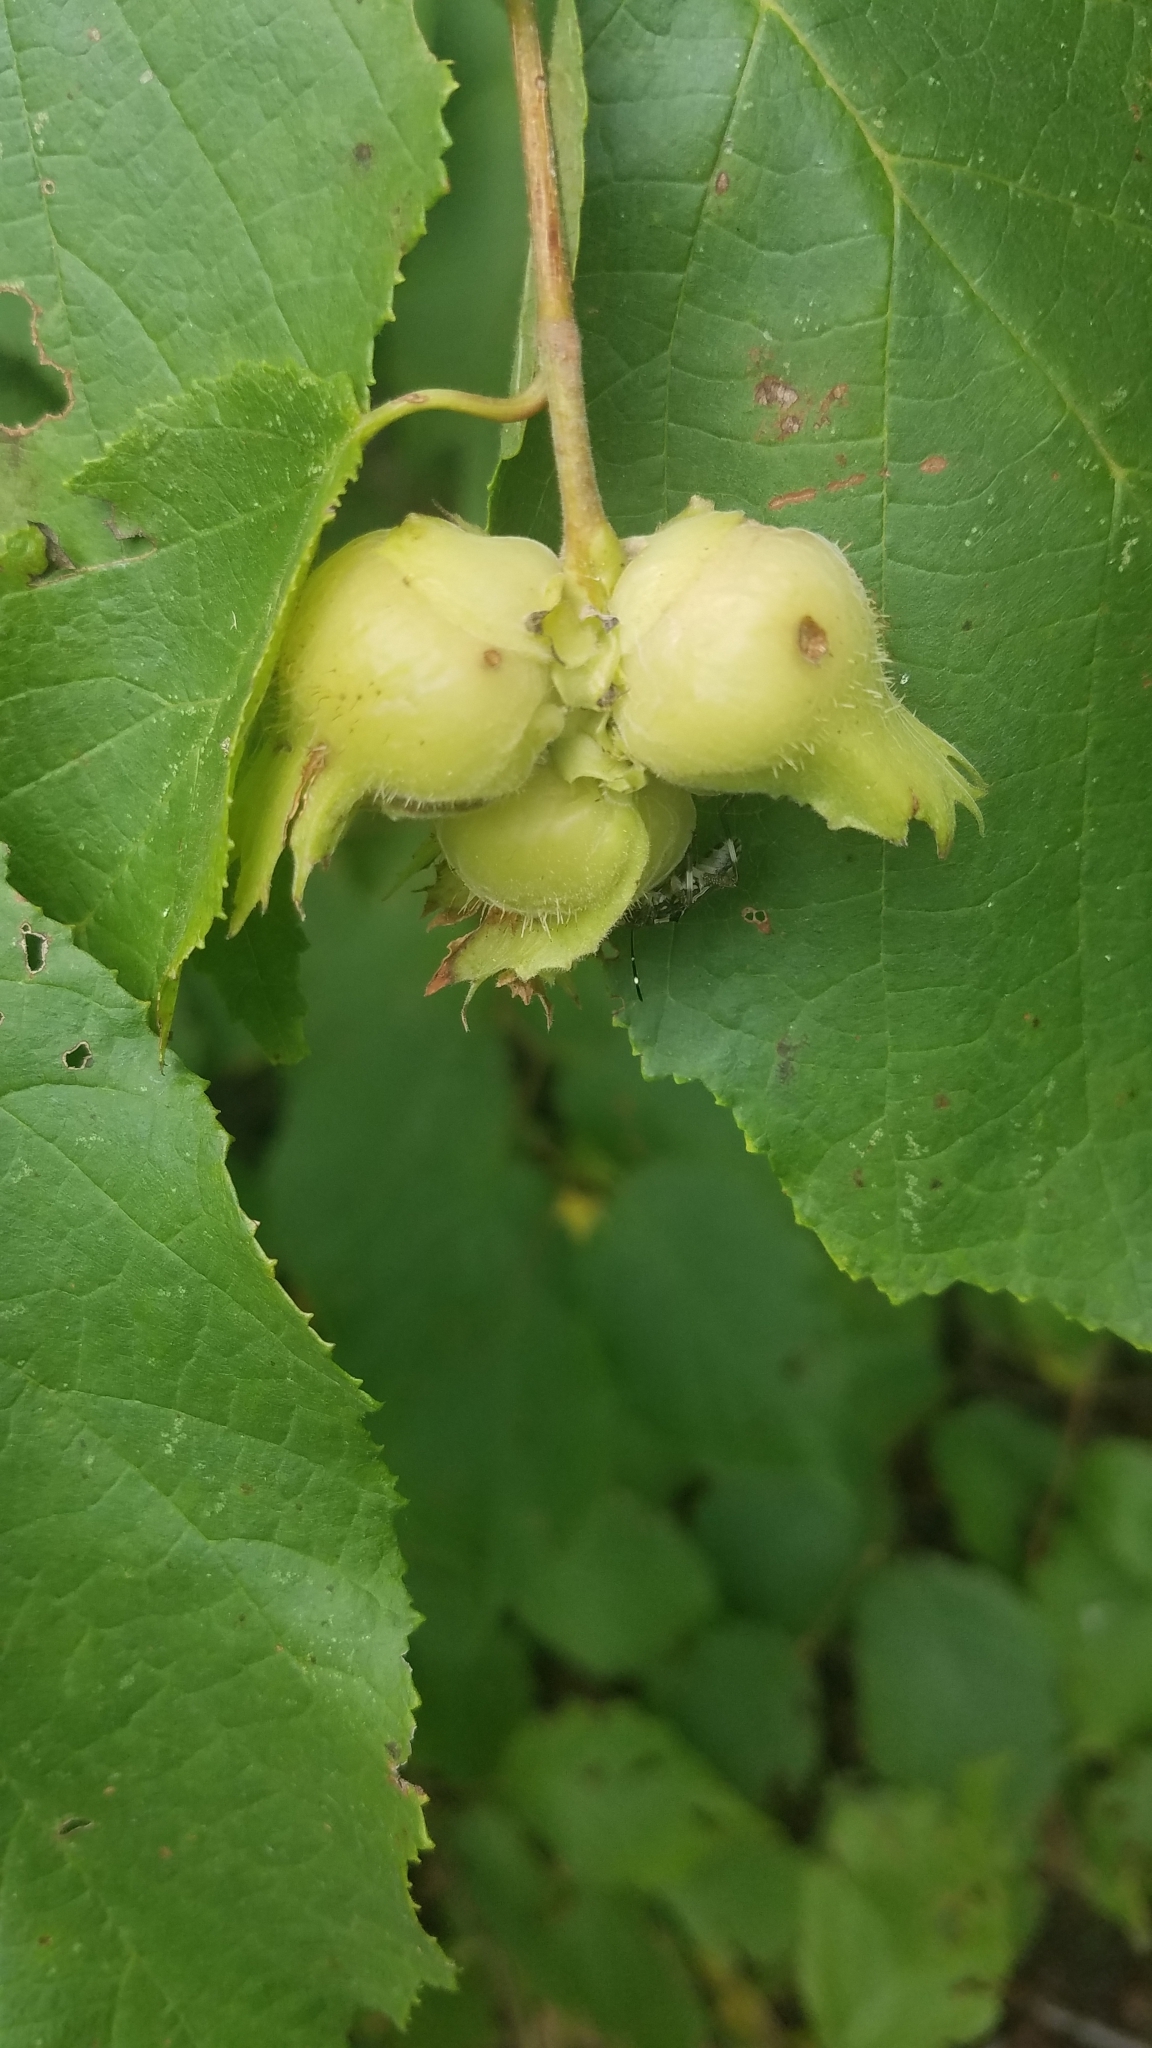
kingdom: Plantae
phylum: Tracheophyta
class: Magnoliopsida
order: Fagales
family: Betulaceae
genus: Corylus
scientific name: Corylus americana
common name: American hazel
